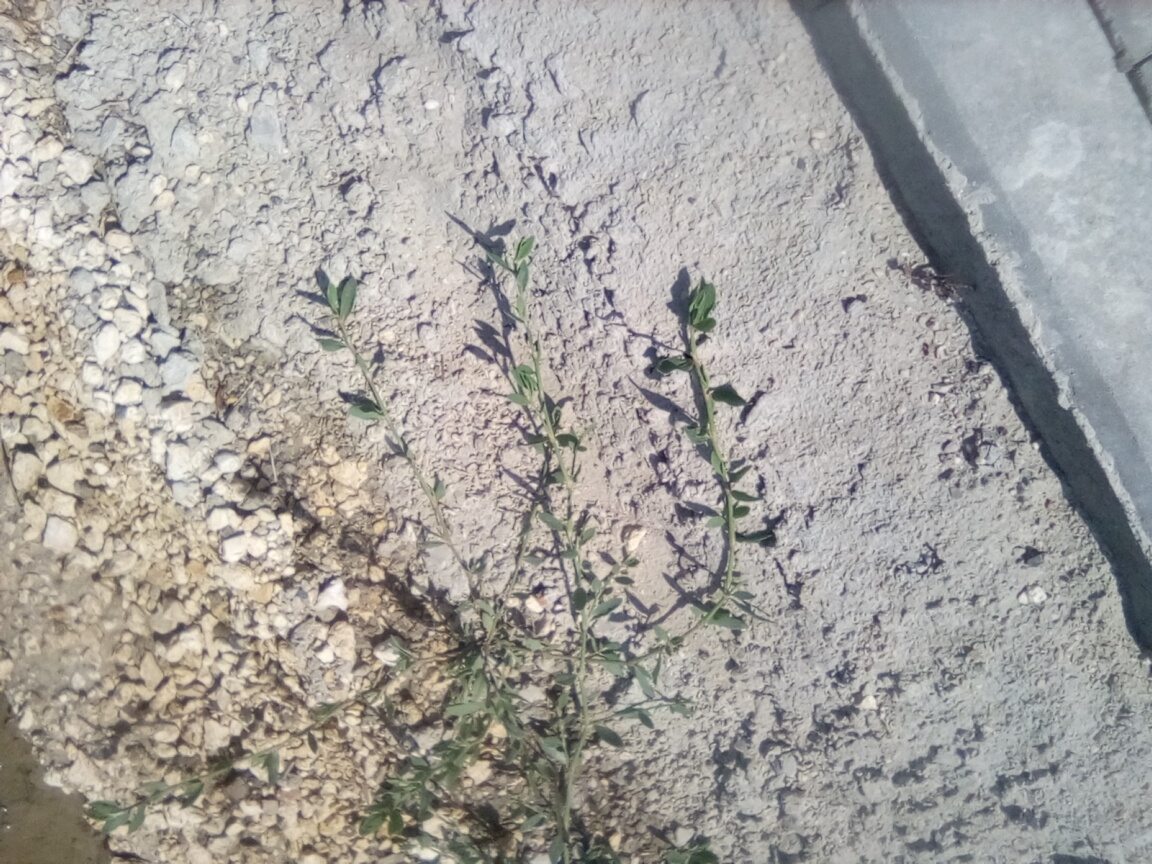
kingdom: Plantae
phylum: Tracheophyta
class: Magnoliopsida
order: Caryophyllales
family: Polygonaceae
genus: Polygonum
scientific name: Polygonum
